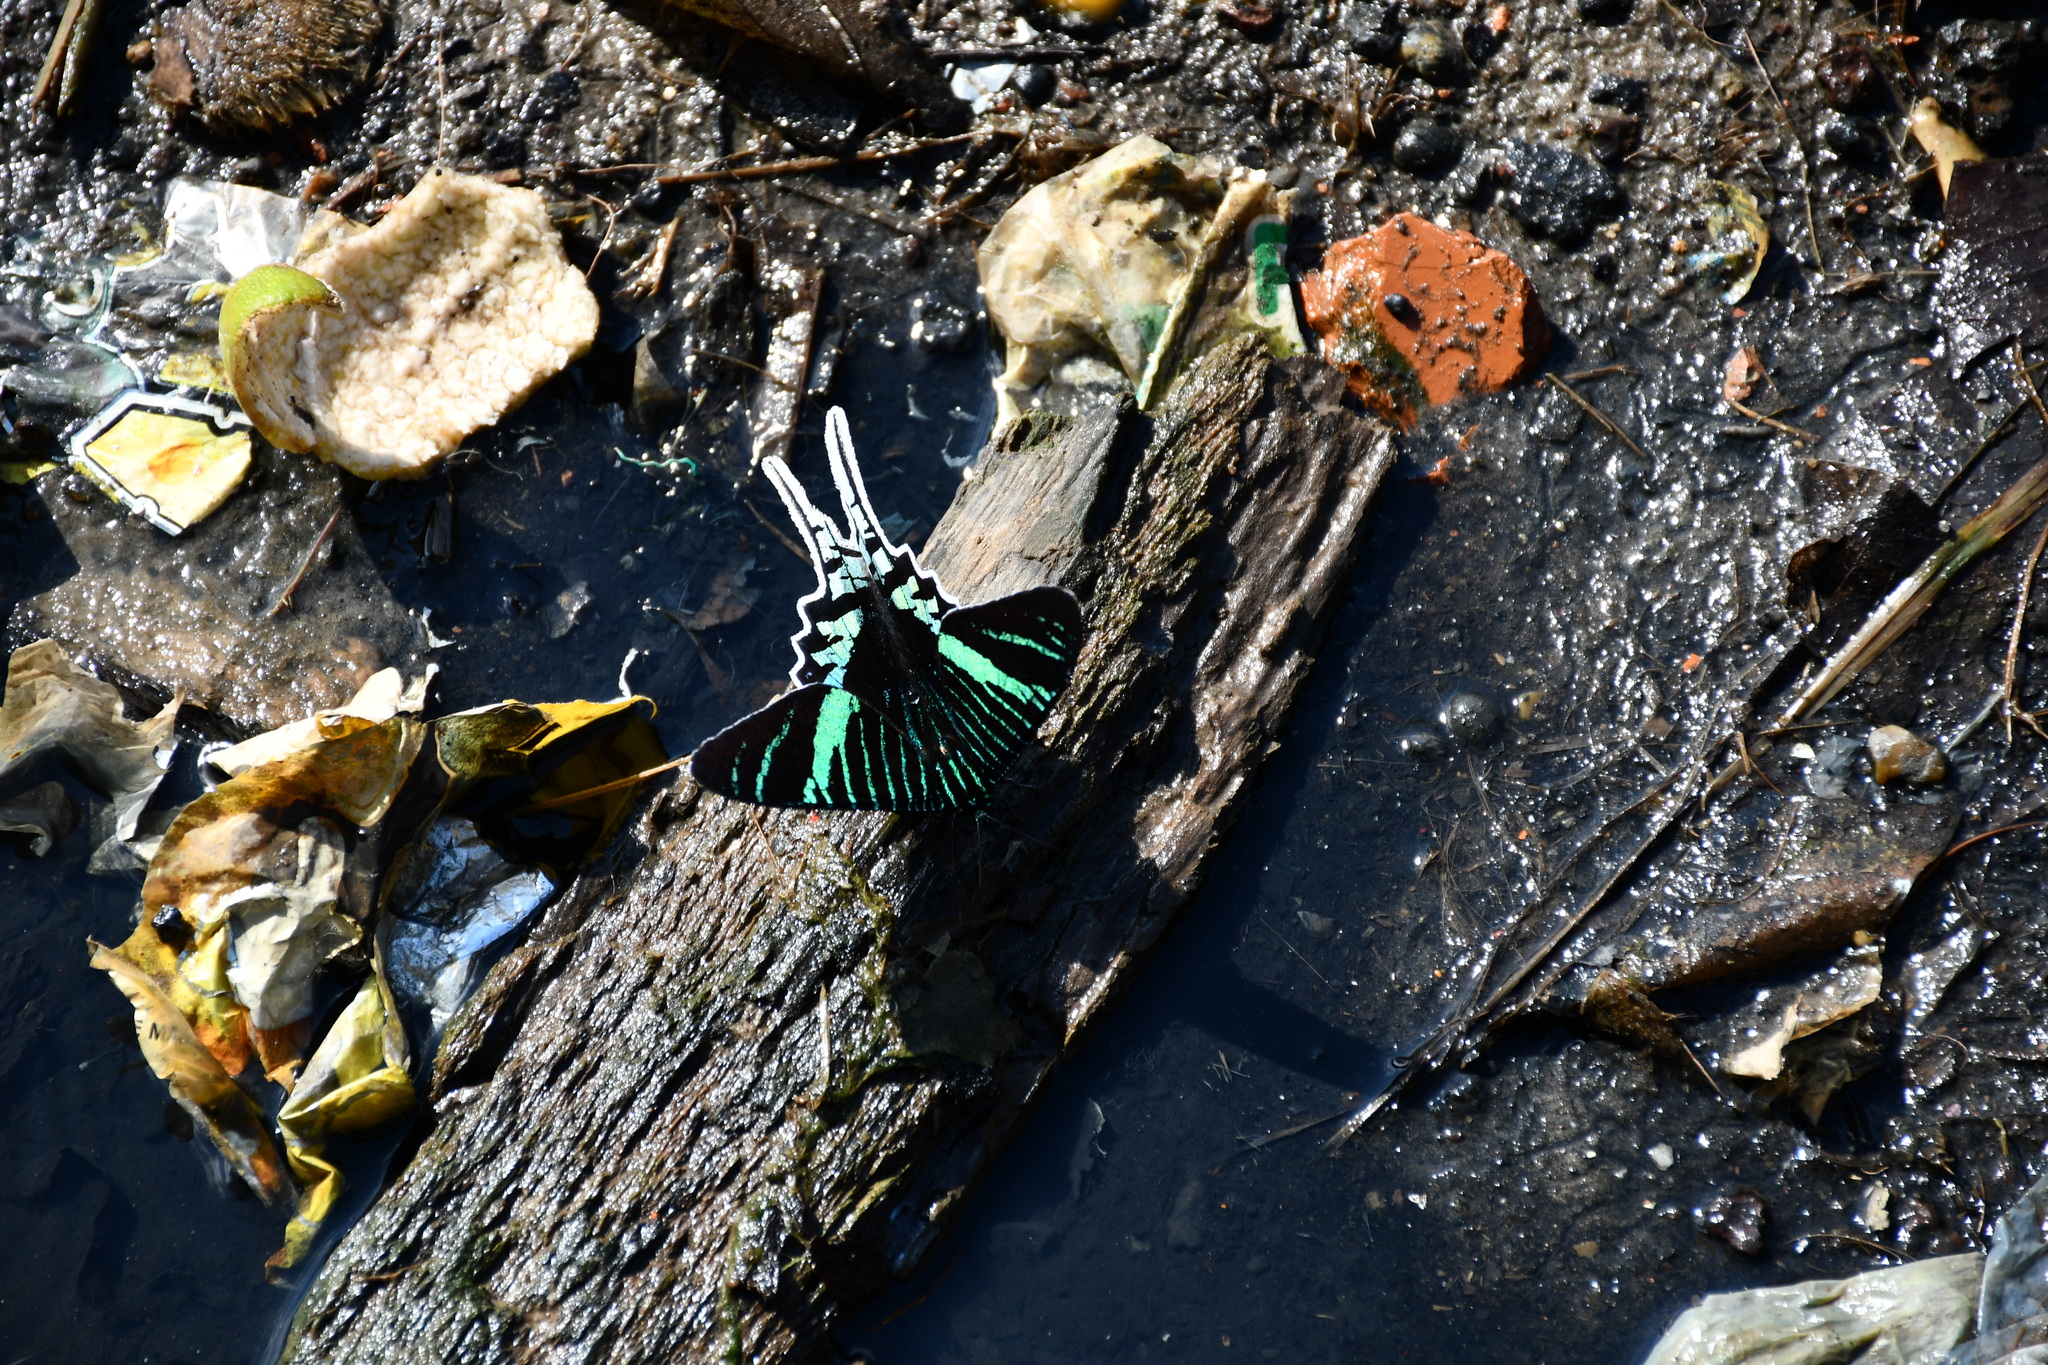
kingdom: Animalia
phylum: Arthropoda
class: Insecta
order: Lepidoptera
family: Uraniidae
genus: Urania
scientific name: Urania leilus
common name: Peacock moth
